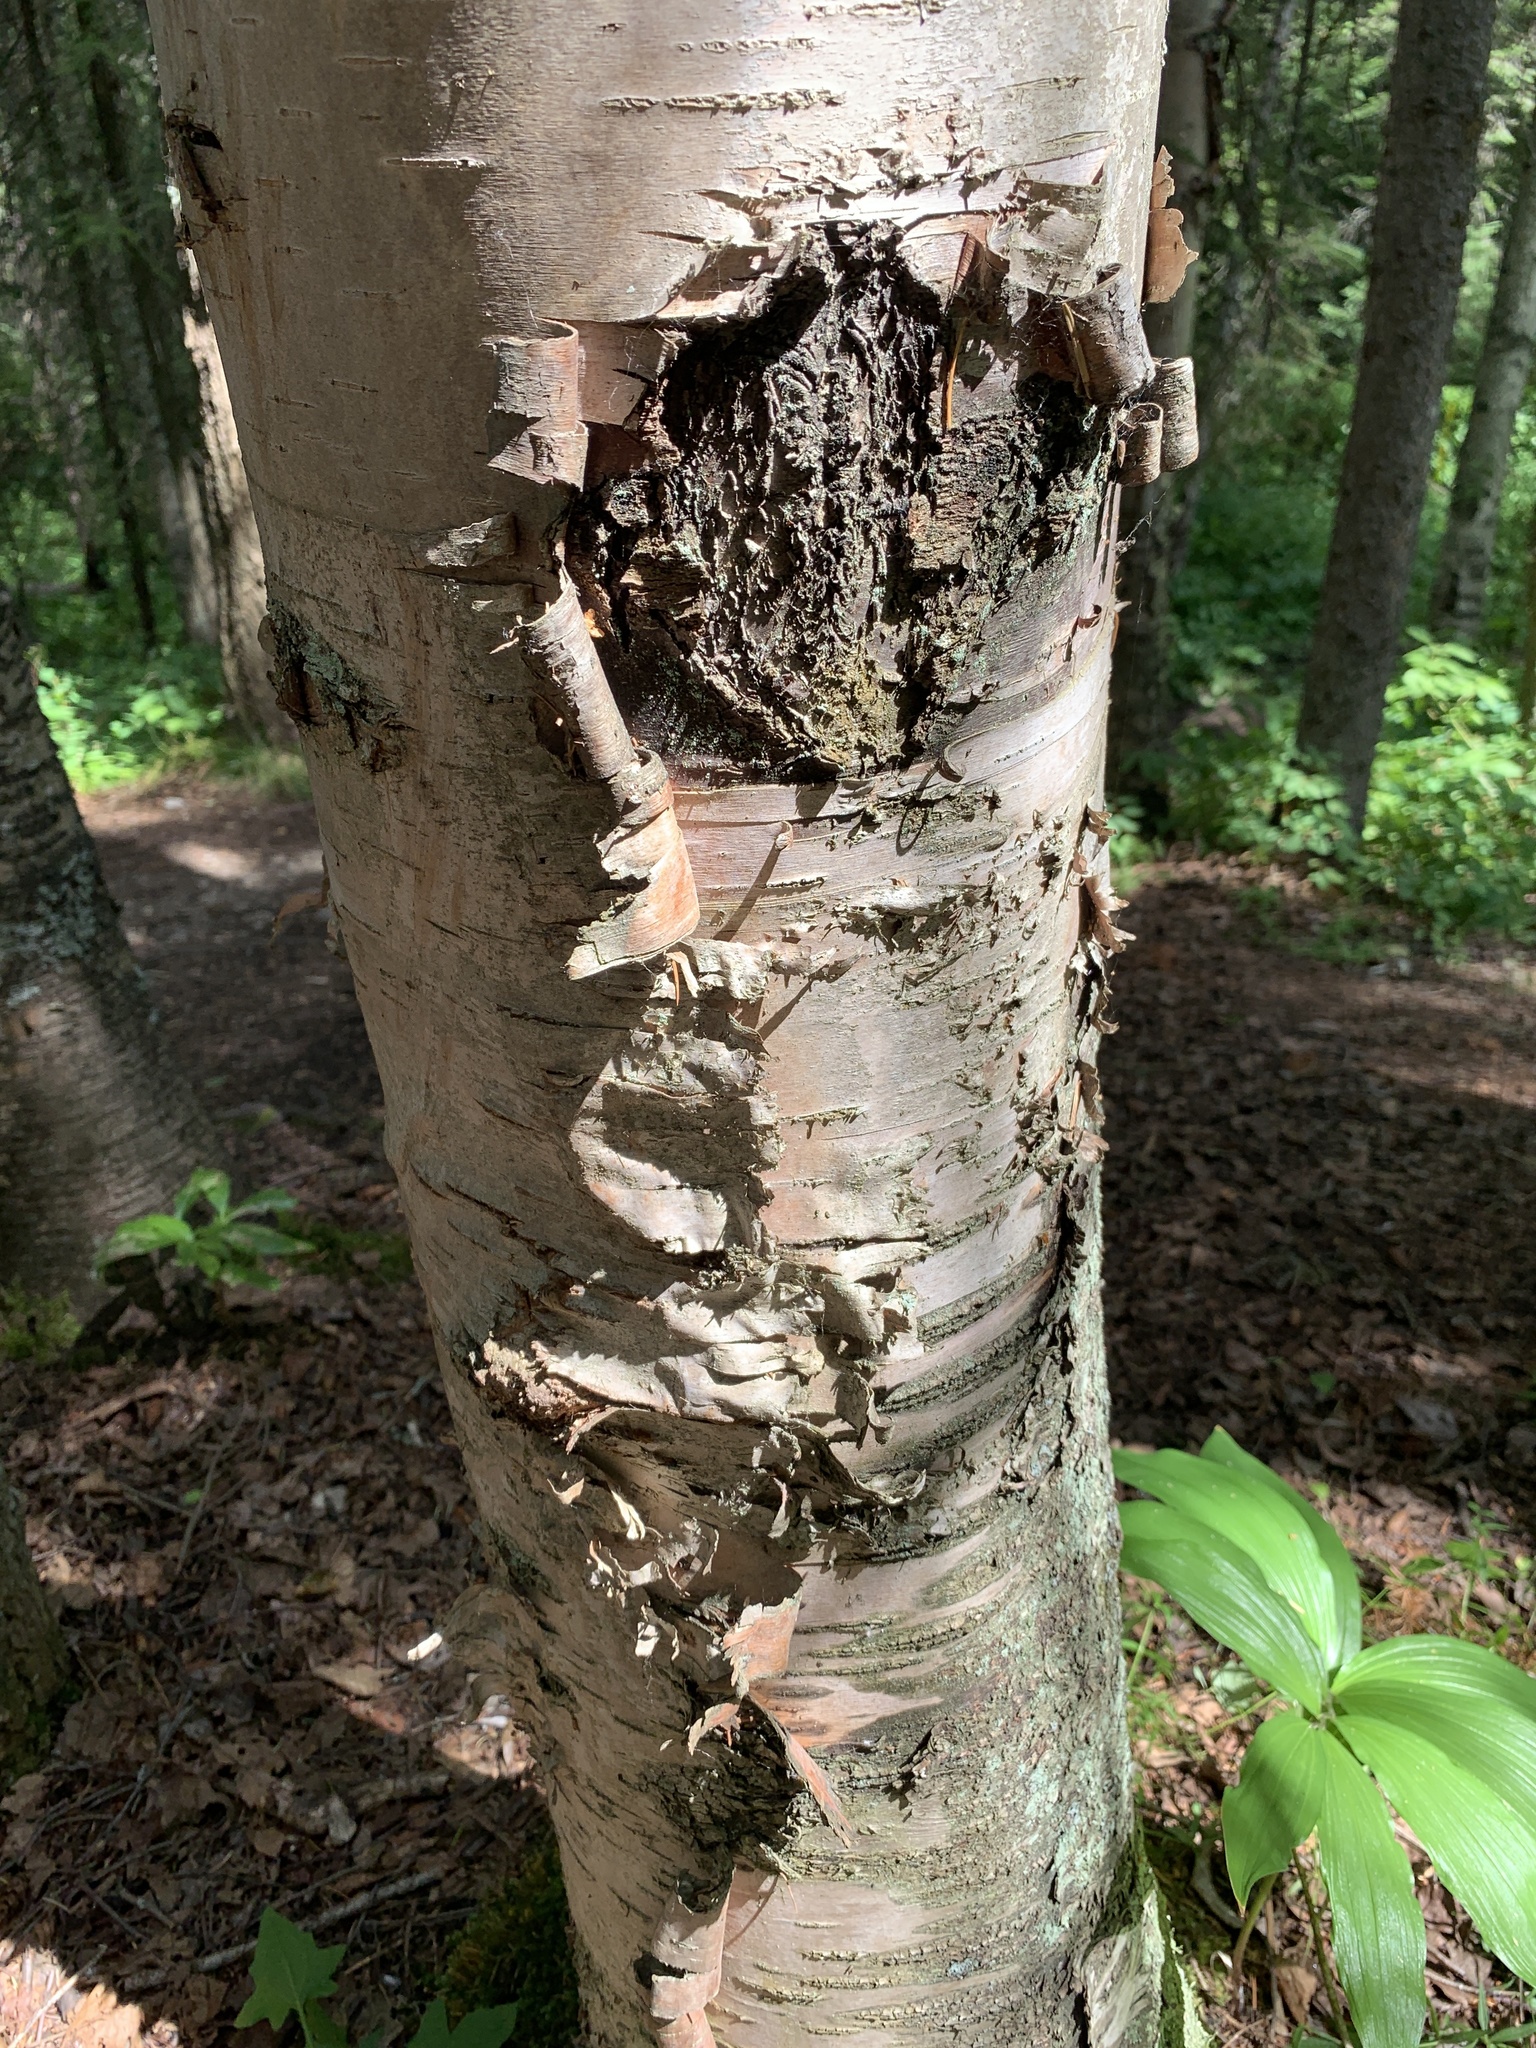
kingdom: Plantae
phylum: Tracheophyta
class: Magnoliopsida
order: Fagales
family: Betulaceae
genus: Betula
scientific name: Betula papyrifera
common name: Paper birch
